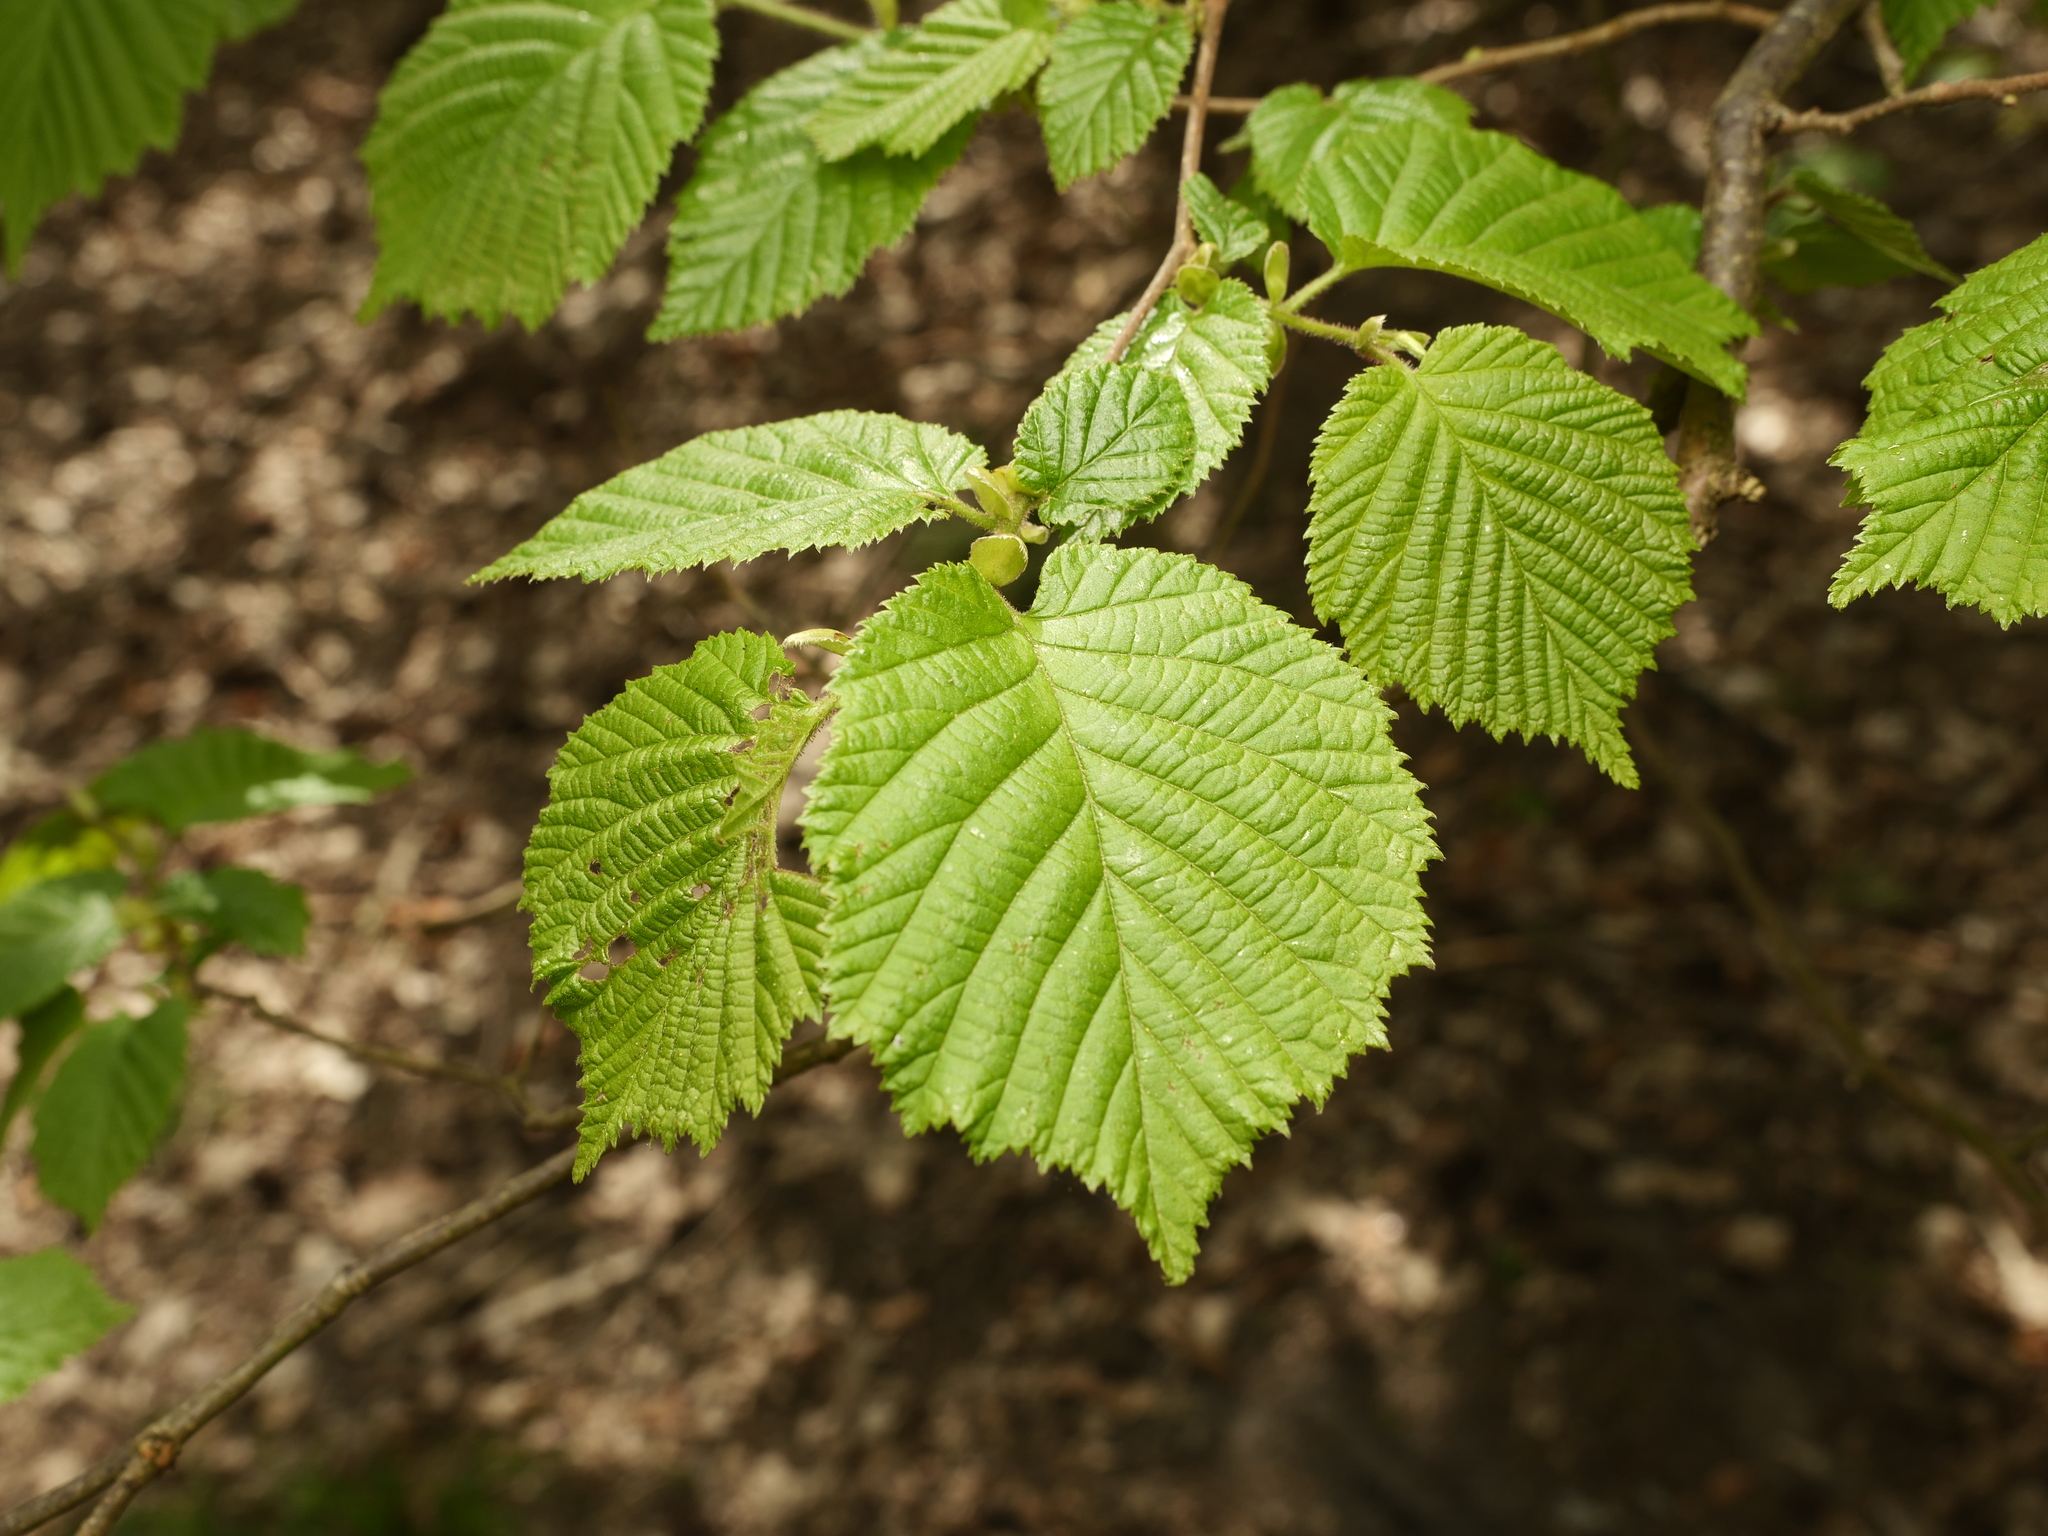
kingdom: Plantae
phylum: Tracheophyta
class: Magnoliopsida
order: Fagales
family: Betulaceae
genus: Corylus
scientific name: Corylus avellana
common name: European hazel
